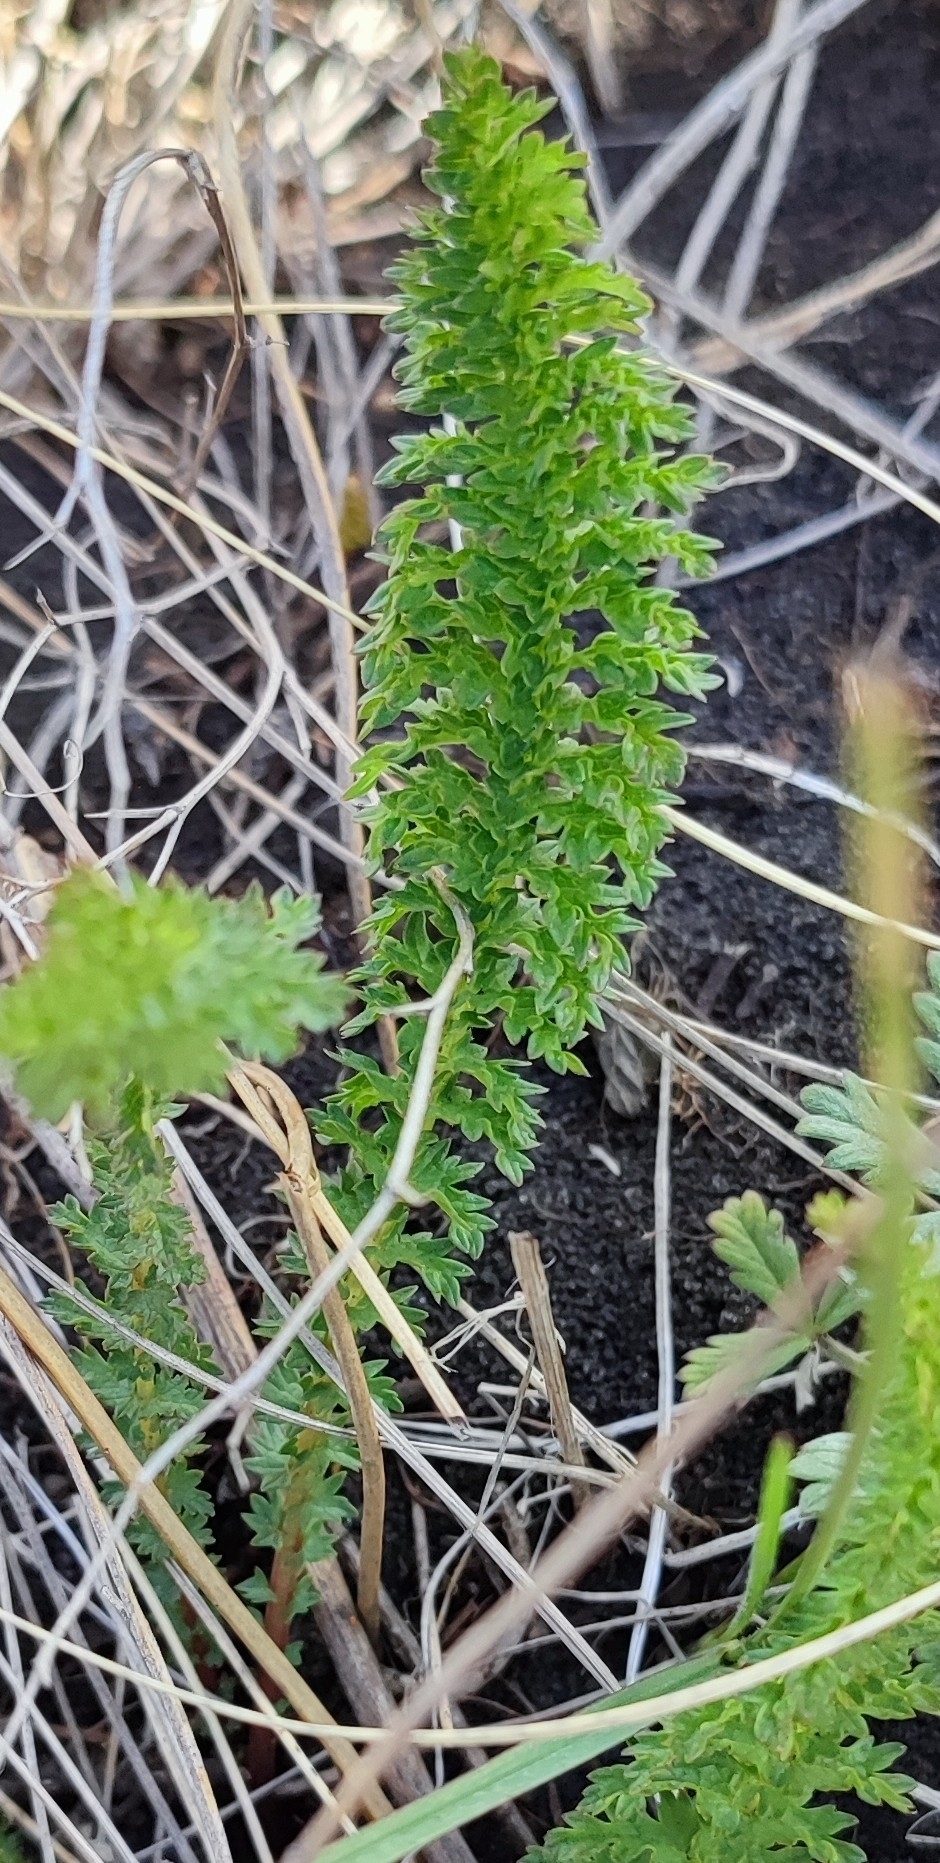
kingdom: Plantae
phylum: Tracheophyta
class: Magnoliopsida
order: Rosales
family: Rosaceae
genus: Filipendula
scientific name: Filipendula vulgaris
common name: Dropwort
